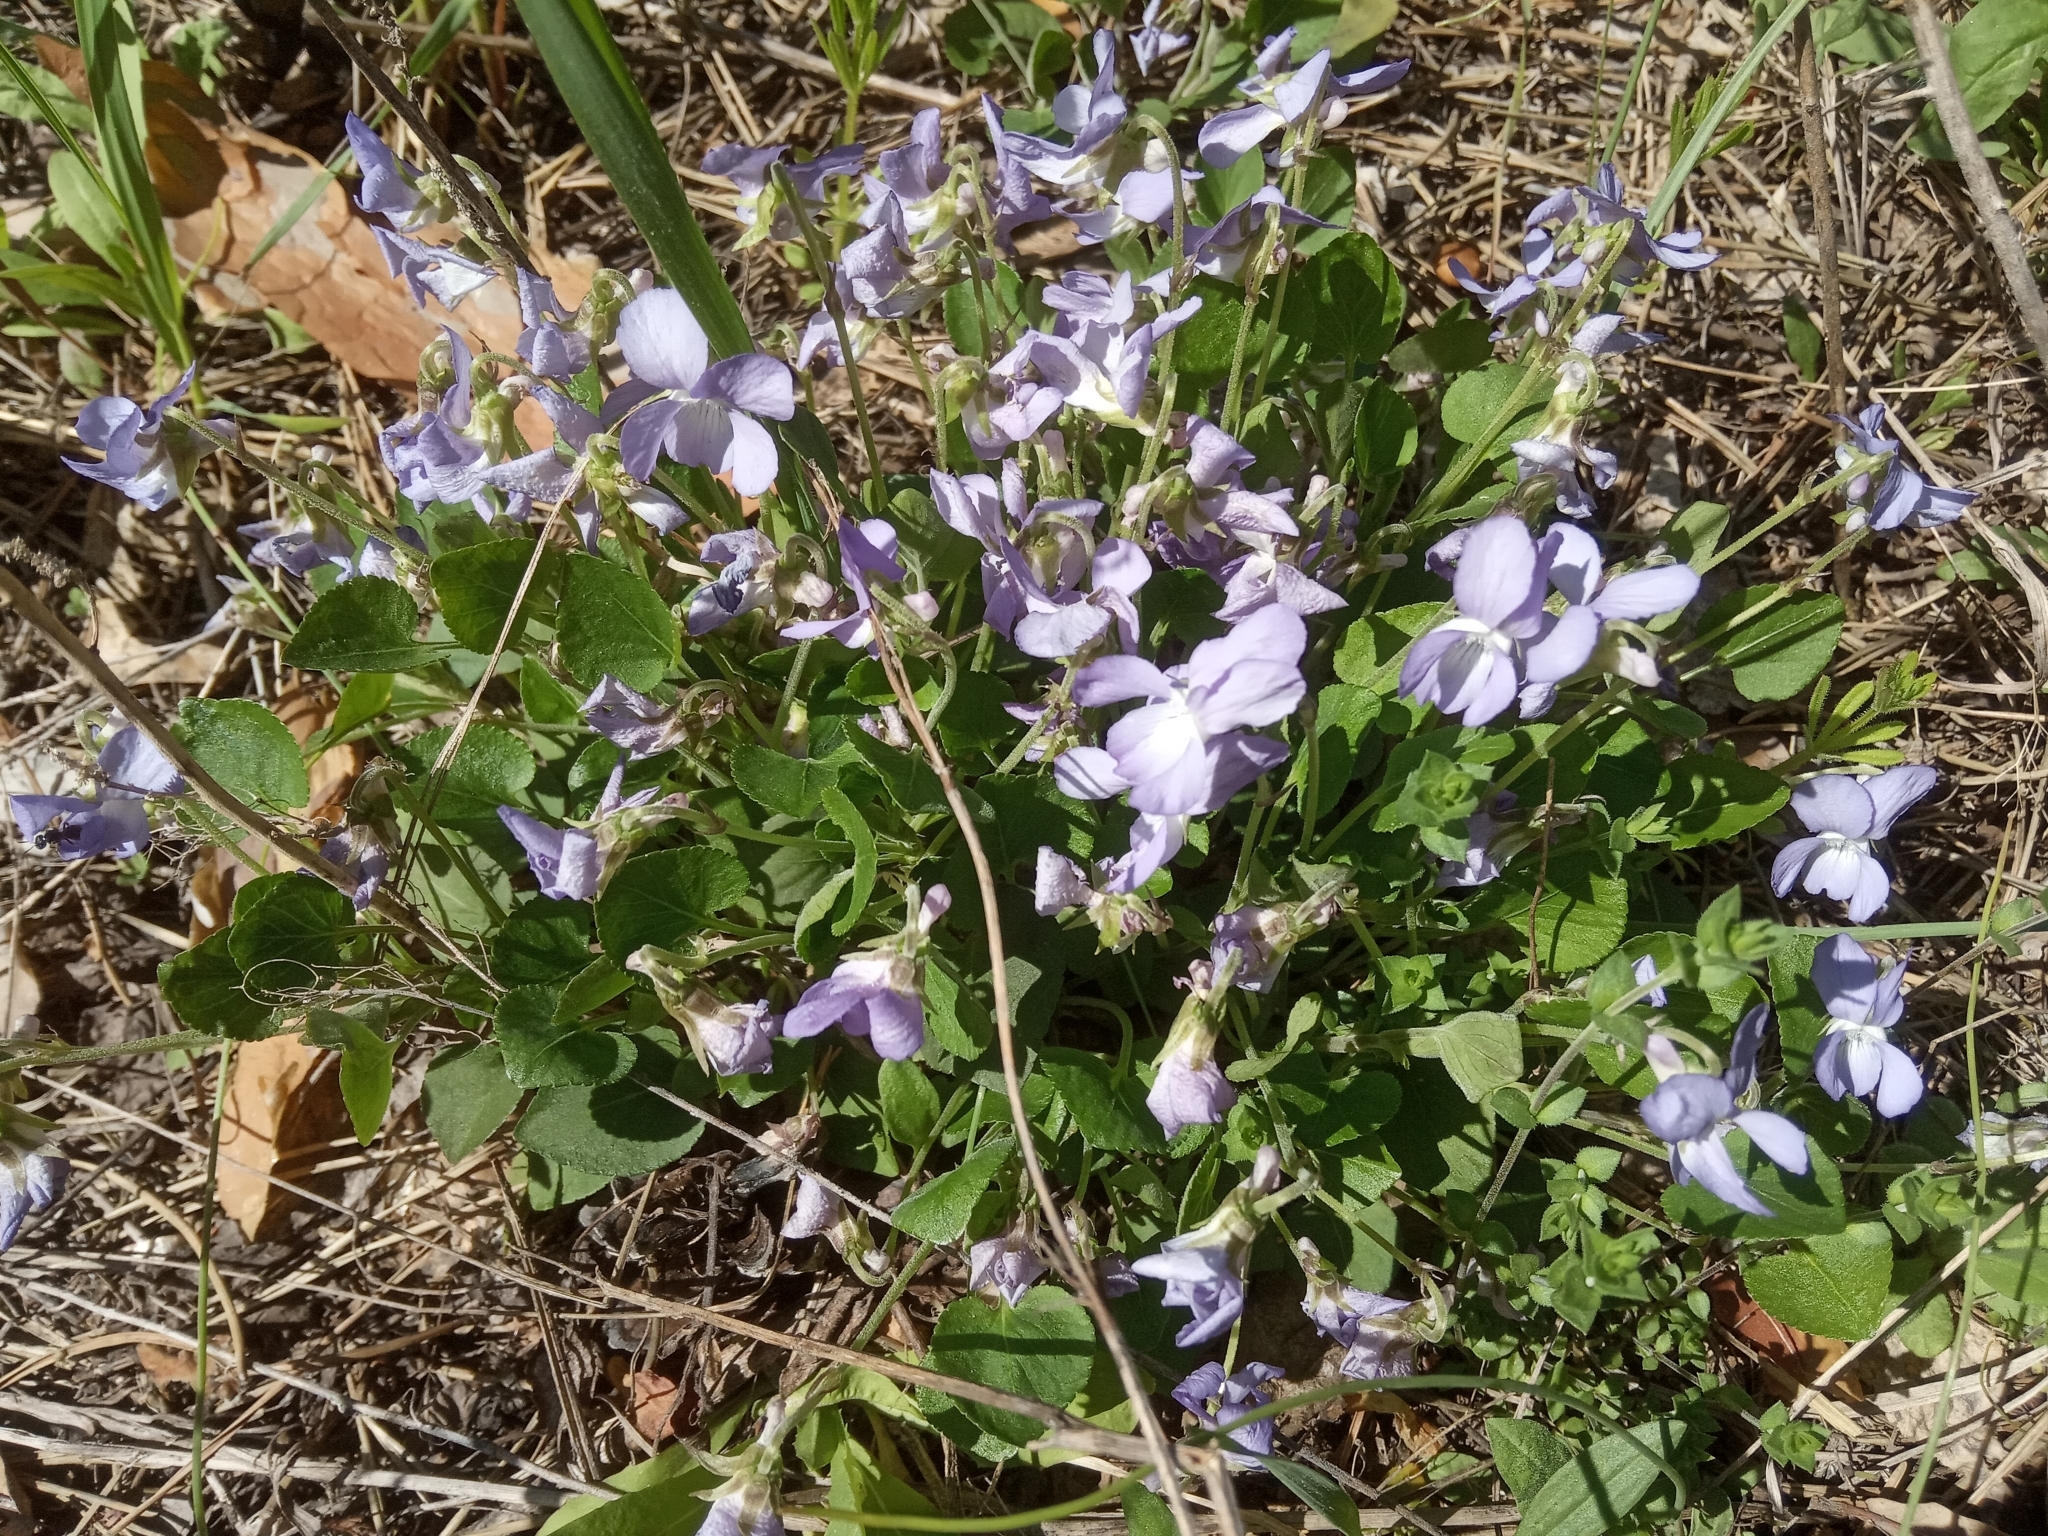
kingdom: Plantae
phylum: Tracheophyta
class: Magnoliopsida
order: Malpighiales
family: Violaceae
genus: Viola
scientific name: Viola rupestris
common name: Teesdale violet
